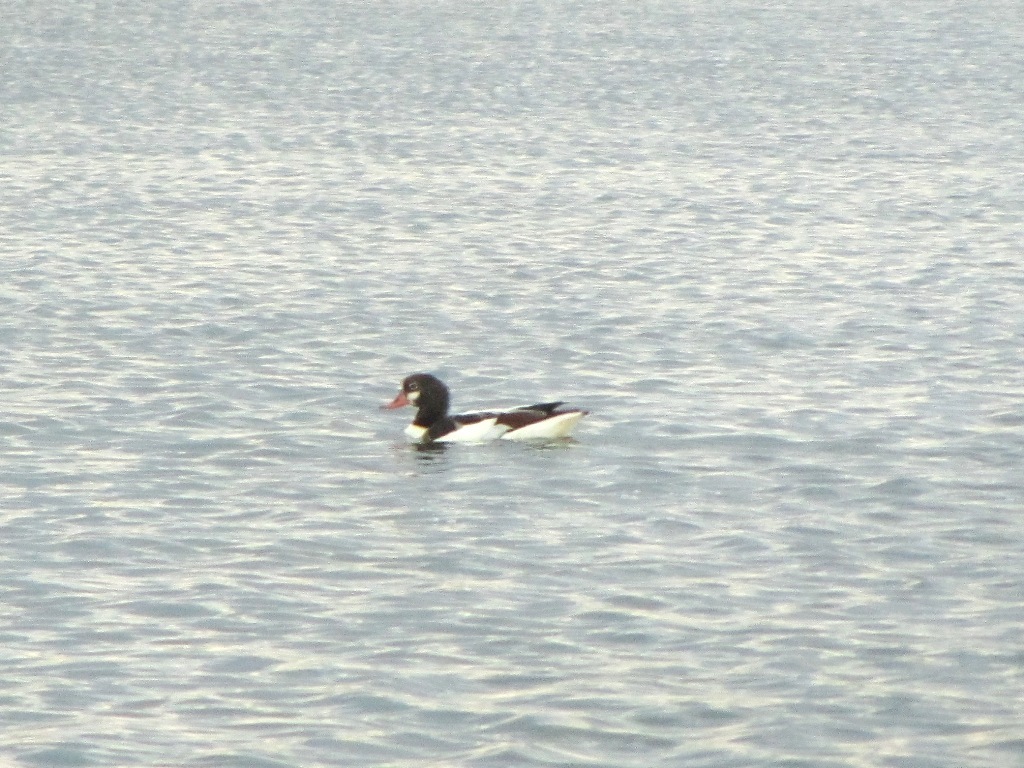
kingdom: Animalia
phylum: Chordata
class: Aves
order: Anseriformes
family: Anatidae
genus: Tadorna
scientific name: Tadorna tadorna
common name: Common shelduck
